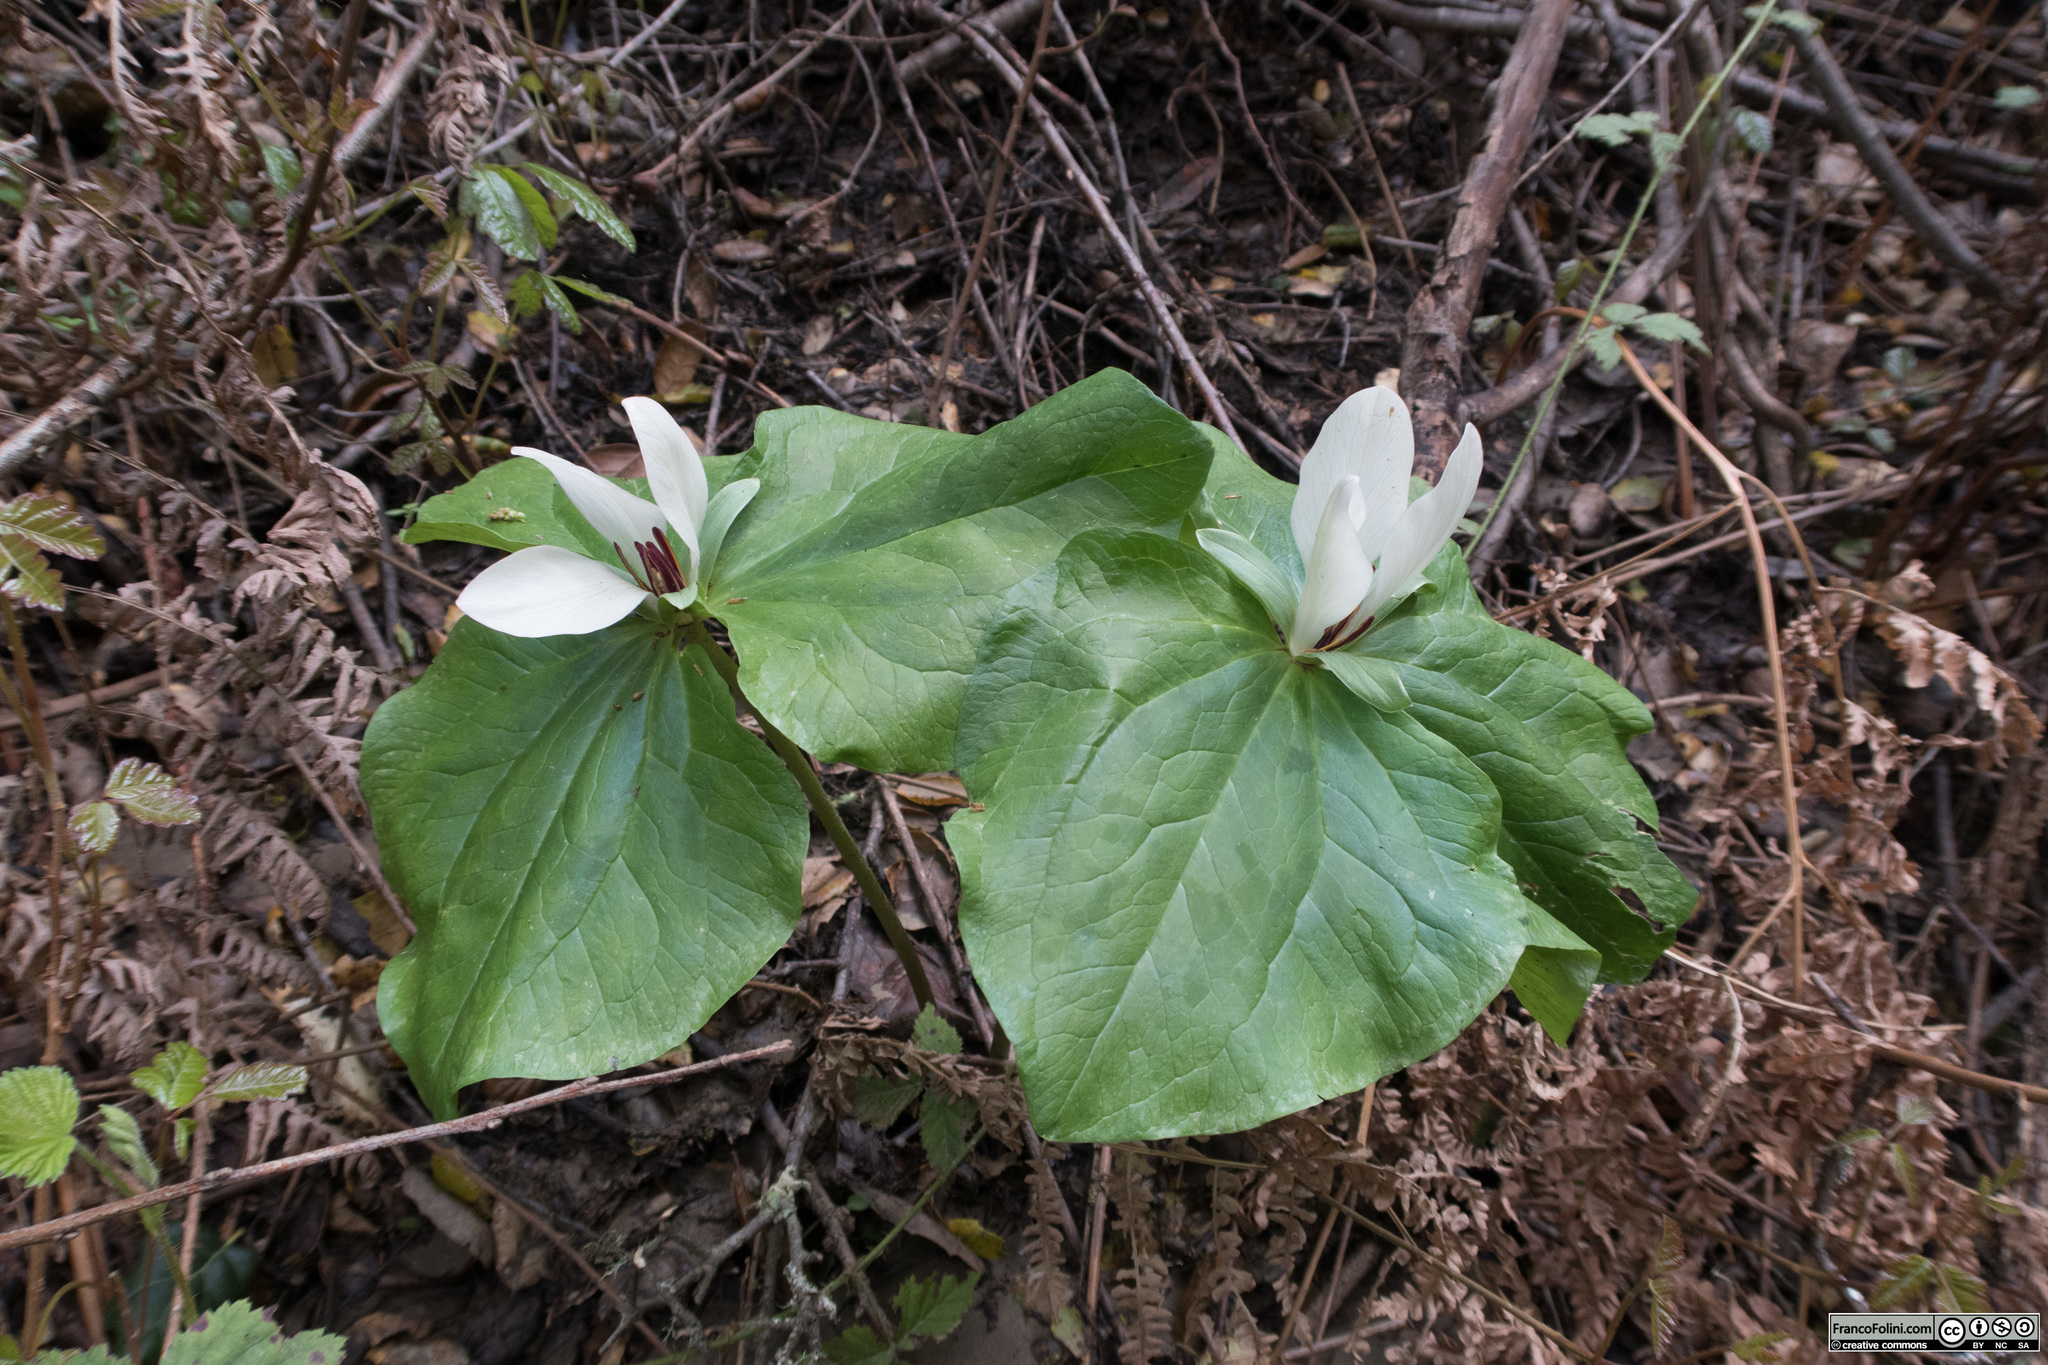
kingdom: Plantae
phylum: Tracheophyta
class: Liliopsida
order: Liliales
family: Melanthiaceae
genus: Trillium
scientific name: Trillium chloropetalum
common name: Giant trillium
